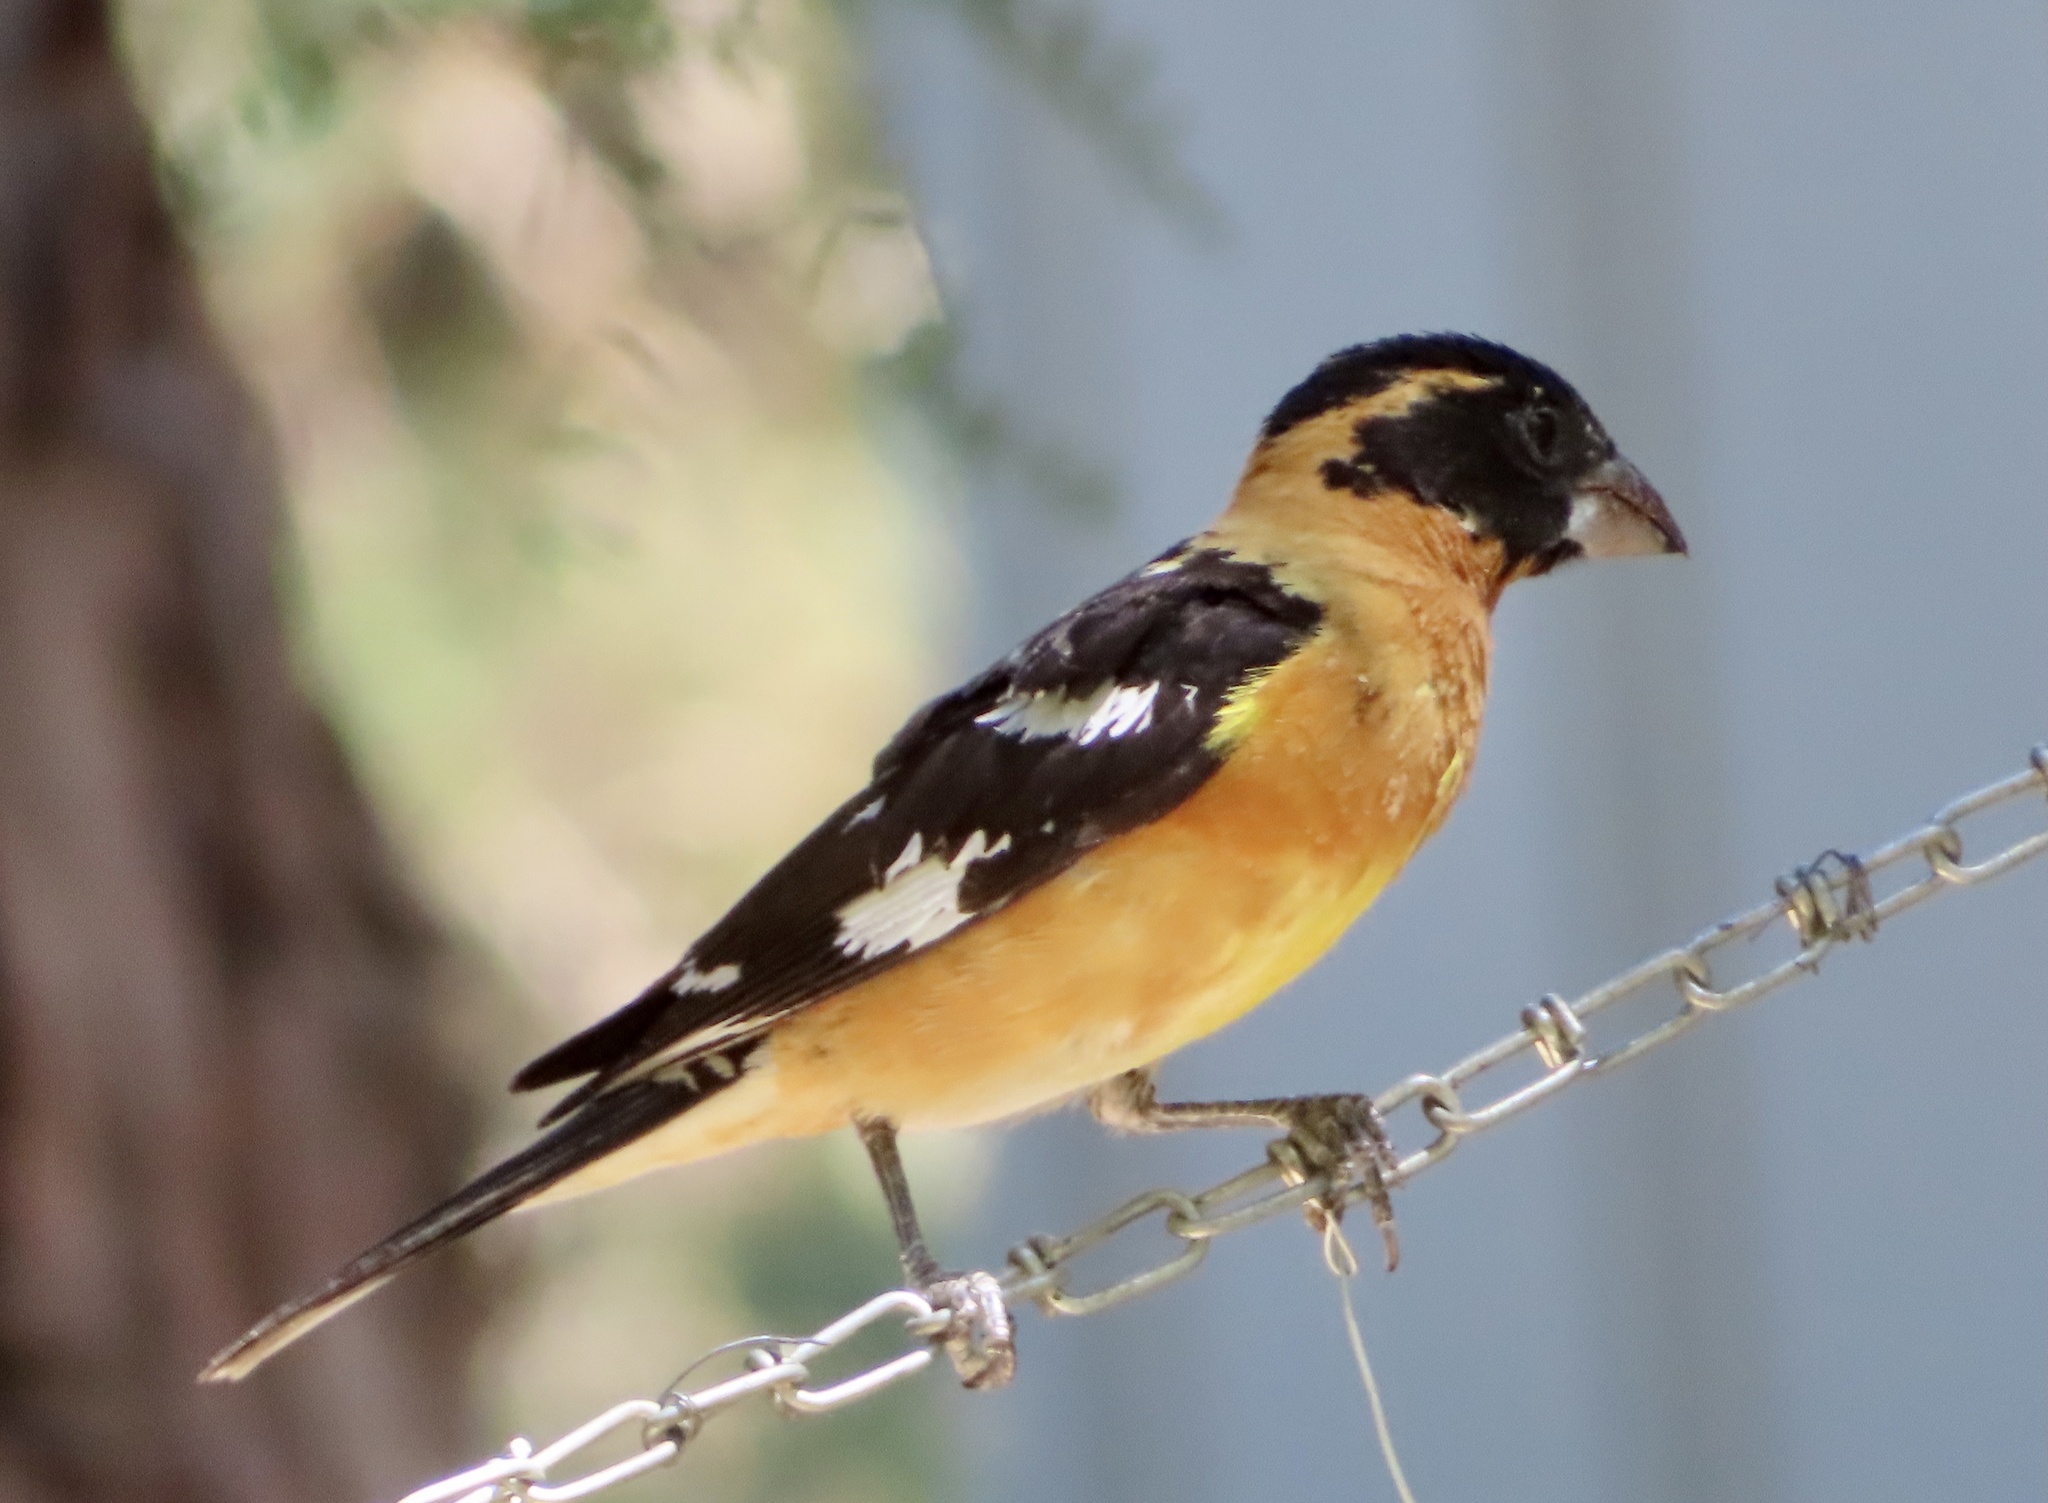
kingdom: Animalia
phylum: Chordata
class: Aves
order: Passeriformes
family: Cardinalidae
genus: Pheucticus
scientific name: Pheucticus melanocephalus
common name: Black-headed grosbeak
